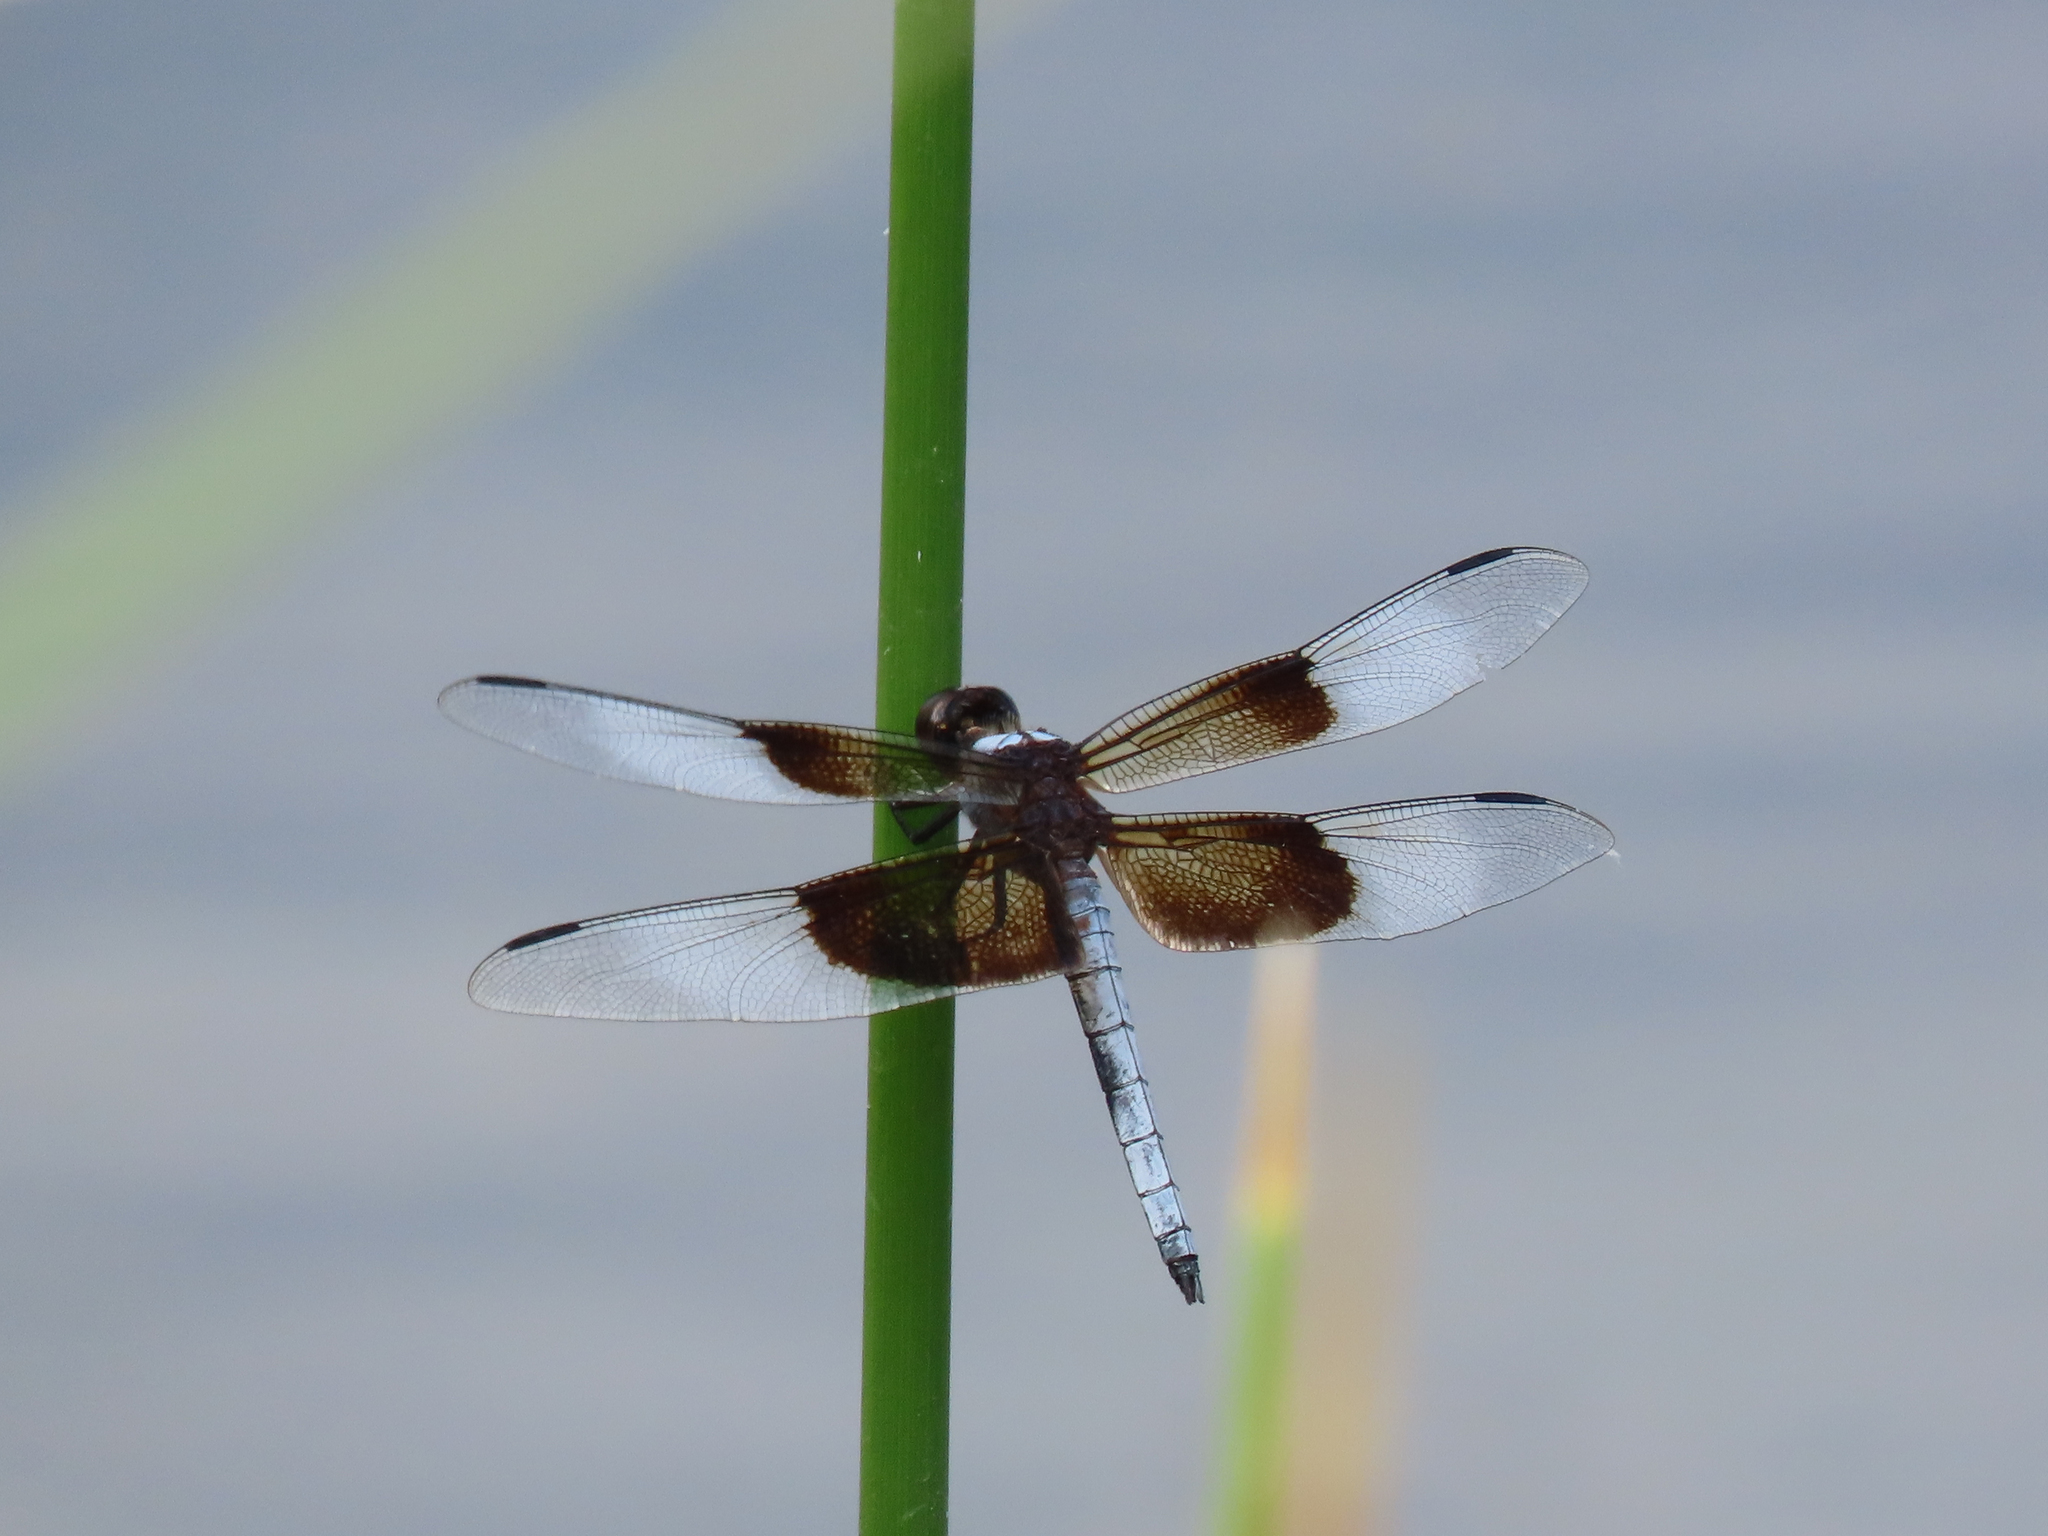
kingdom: Animalia
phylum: Arthropoda
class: Insecta
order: Odonata
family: Libellulidae
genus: Libellula
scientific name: Libellula luctuosa
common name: Widow skimmer
